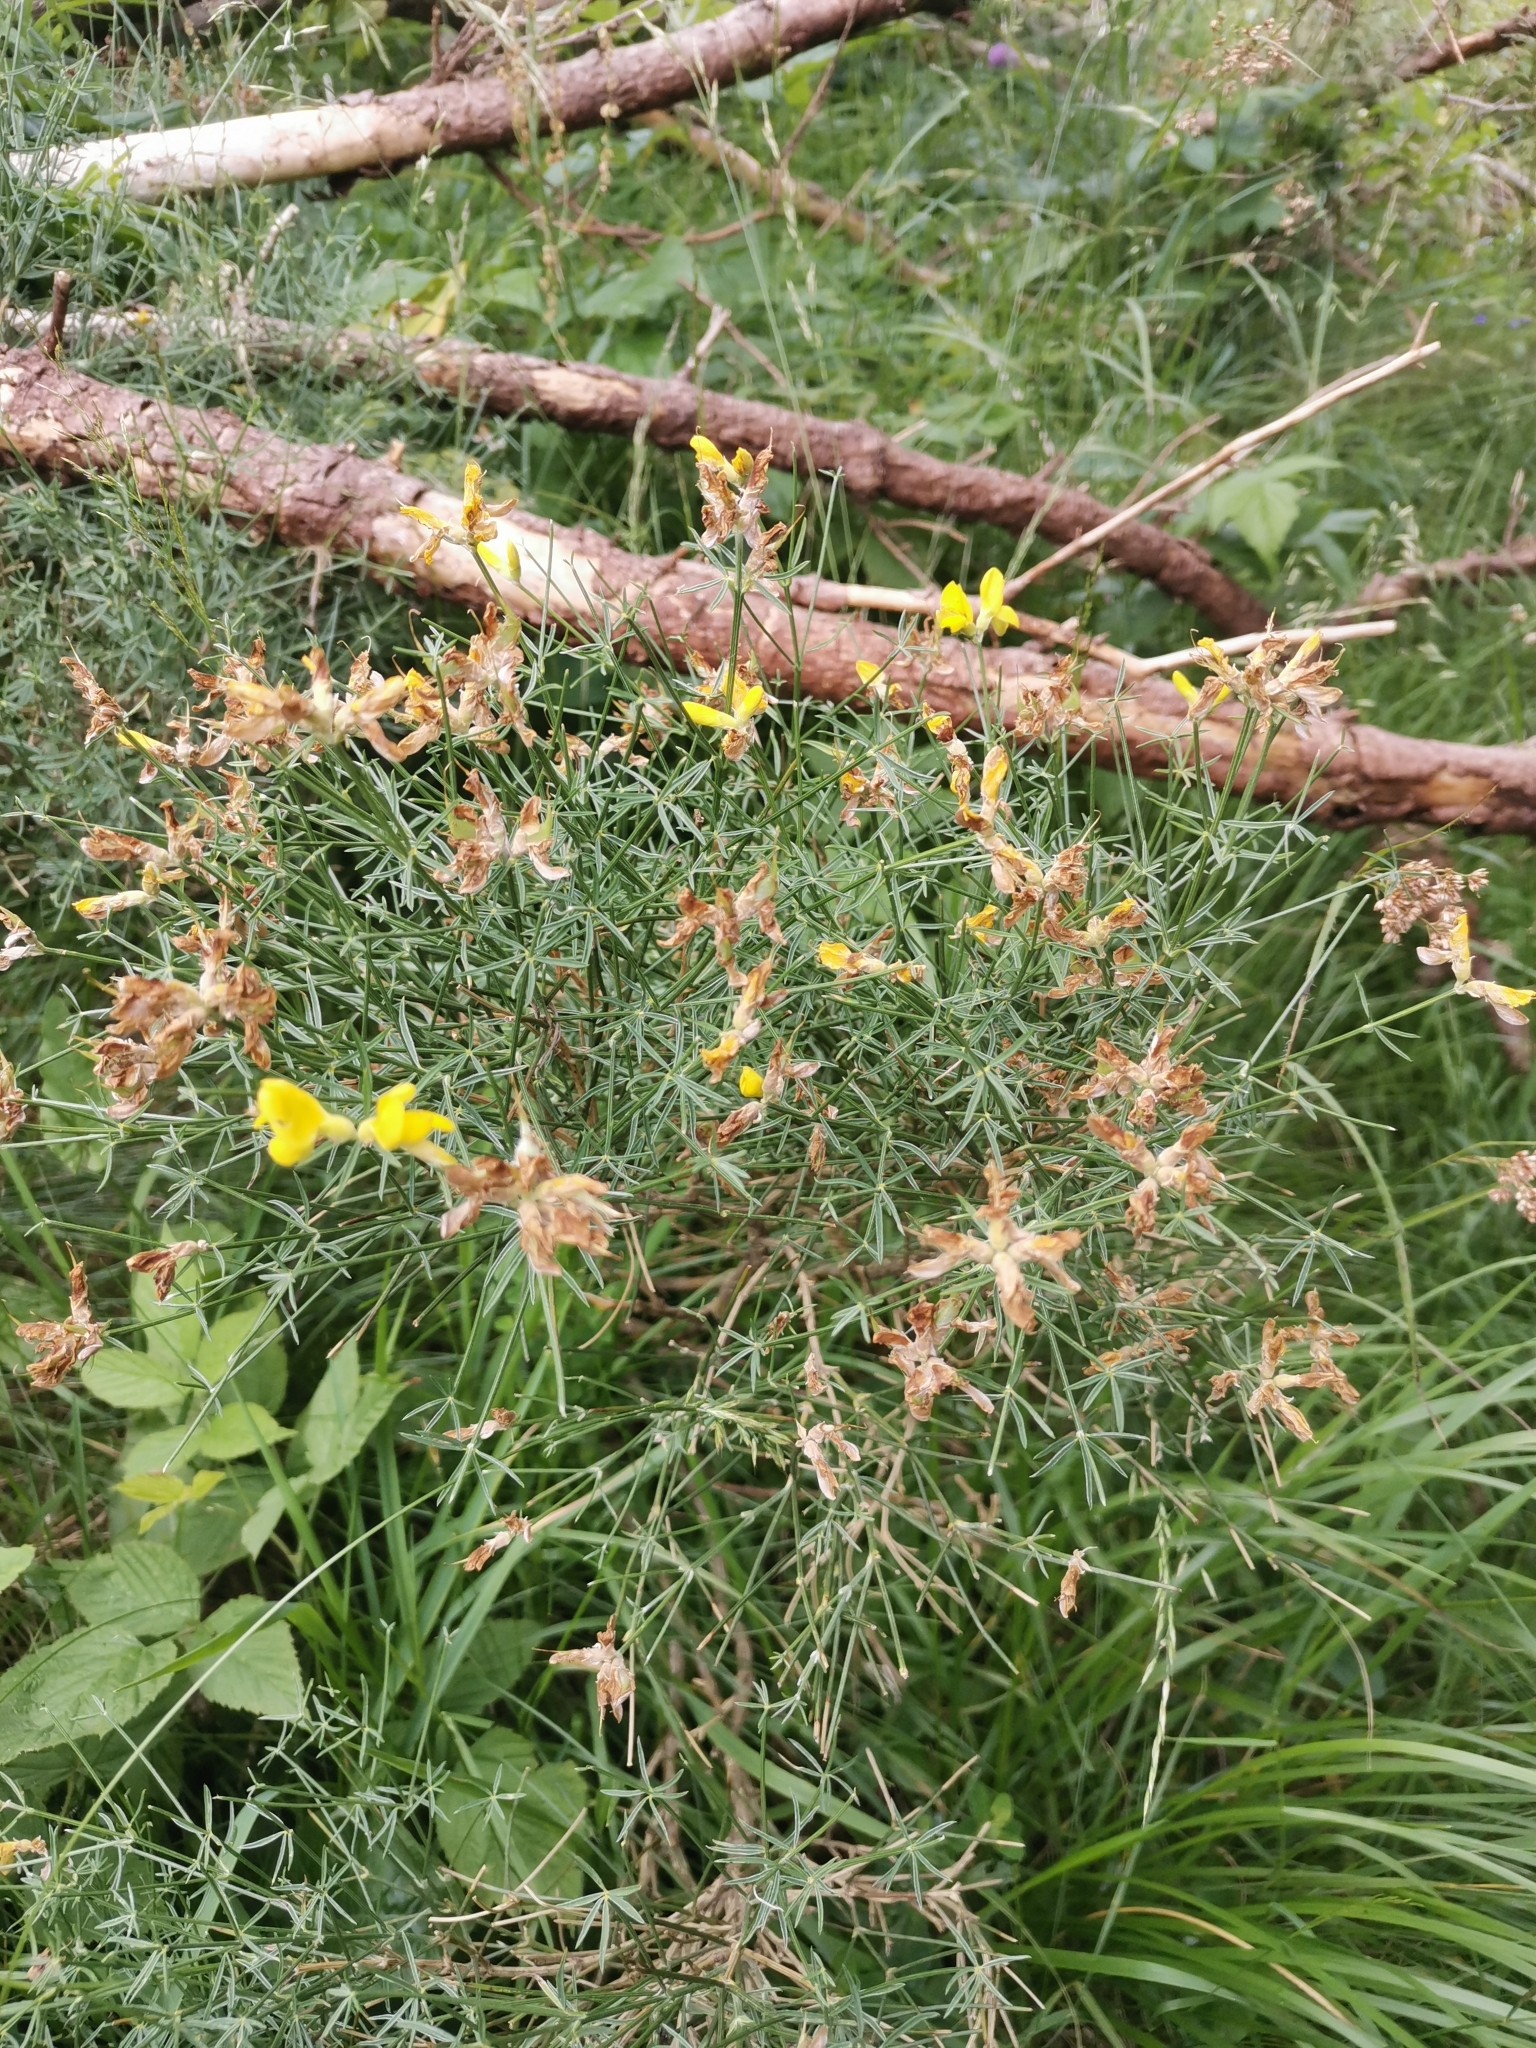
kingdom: Plantae
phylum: Tracheophyta
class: Magnoliopsida
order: Fabales
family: Fabaceae
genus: Genista
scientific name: Genista radiata
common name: Southern greenweed
